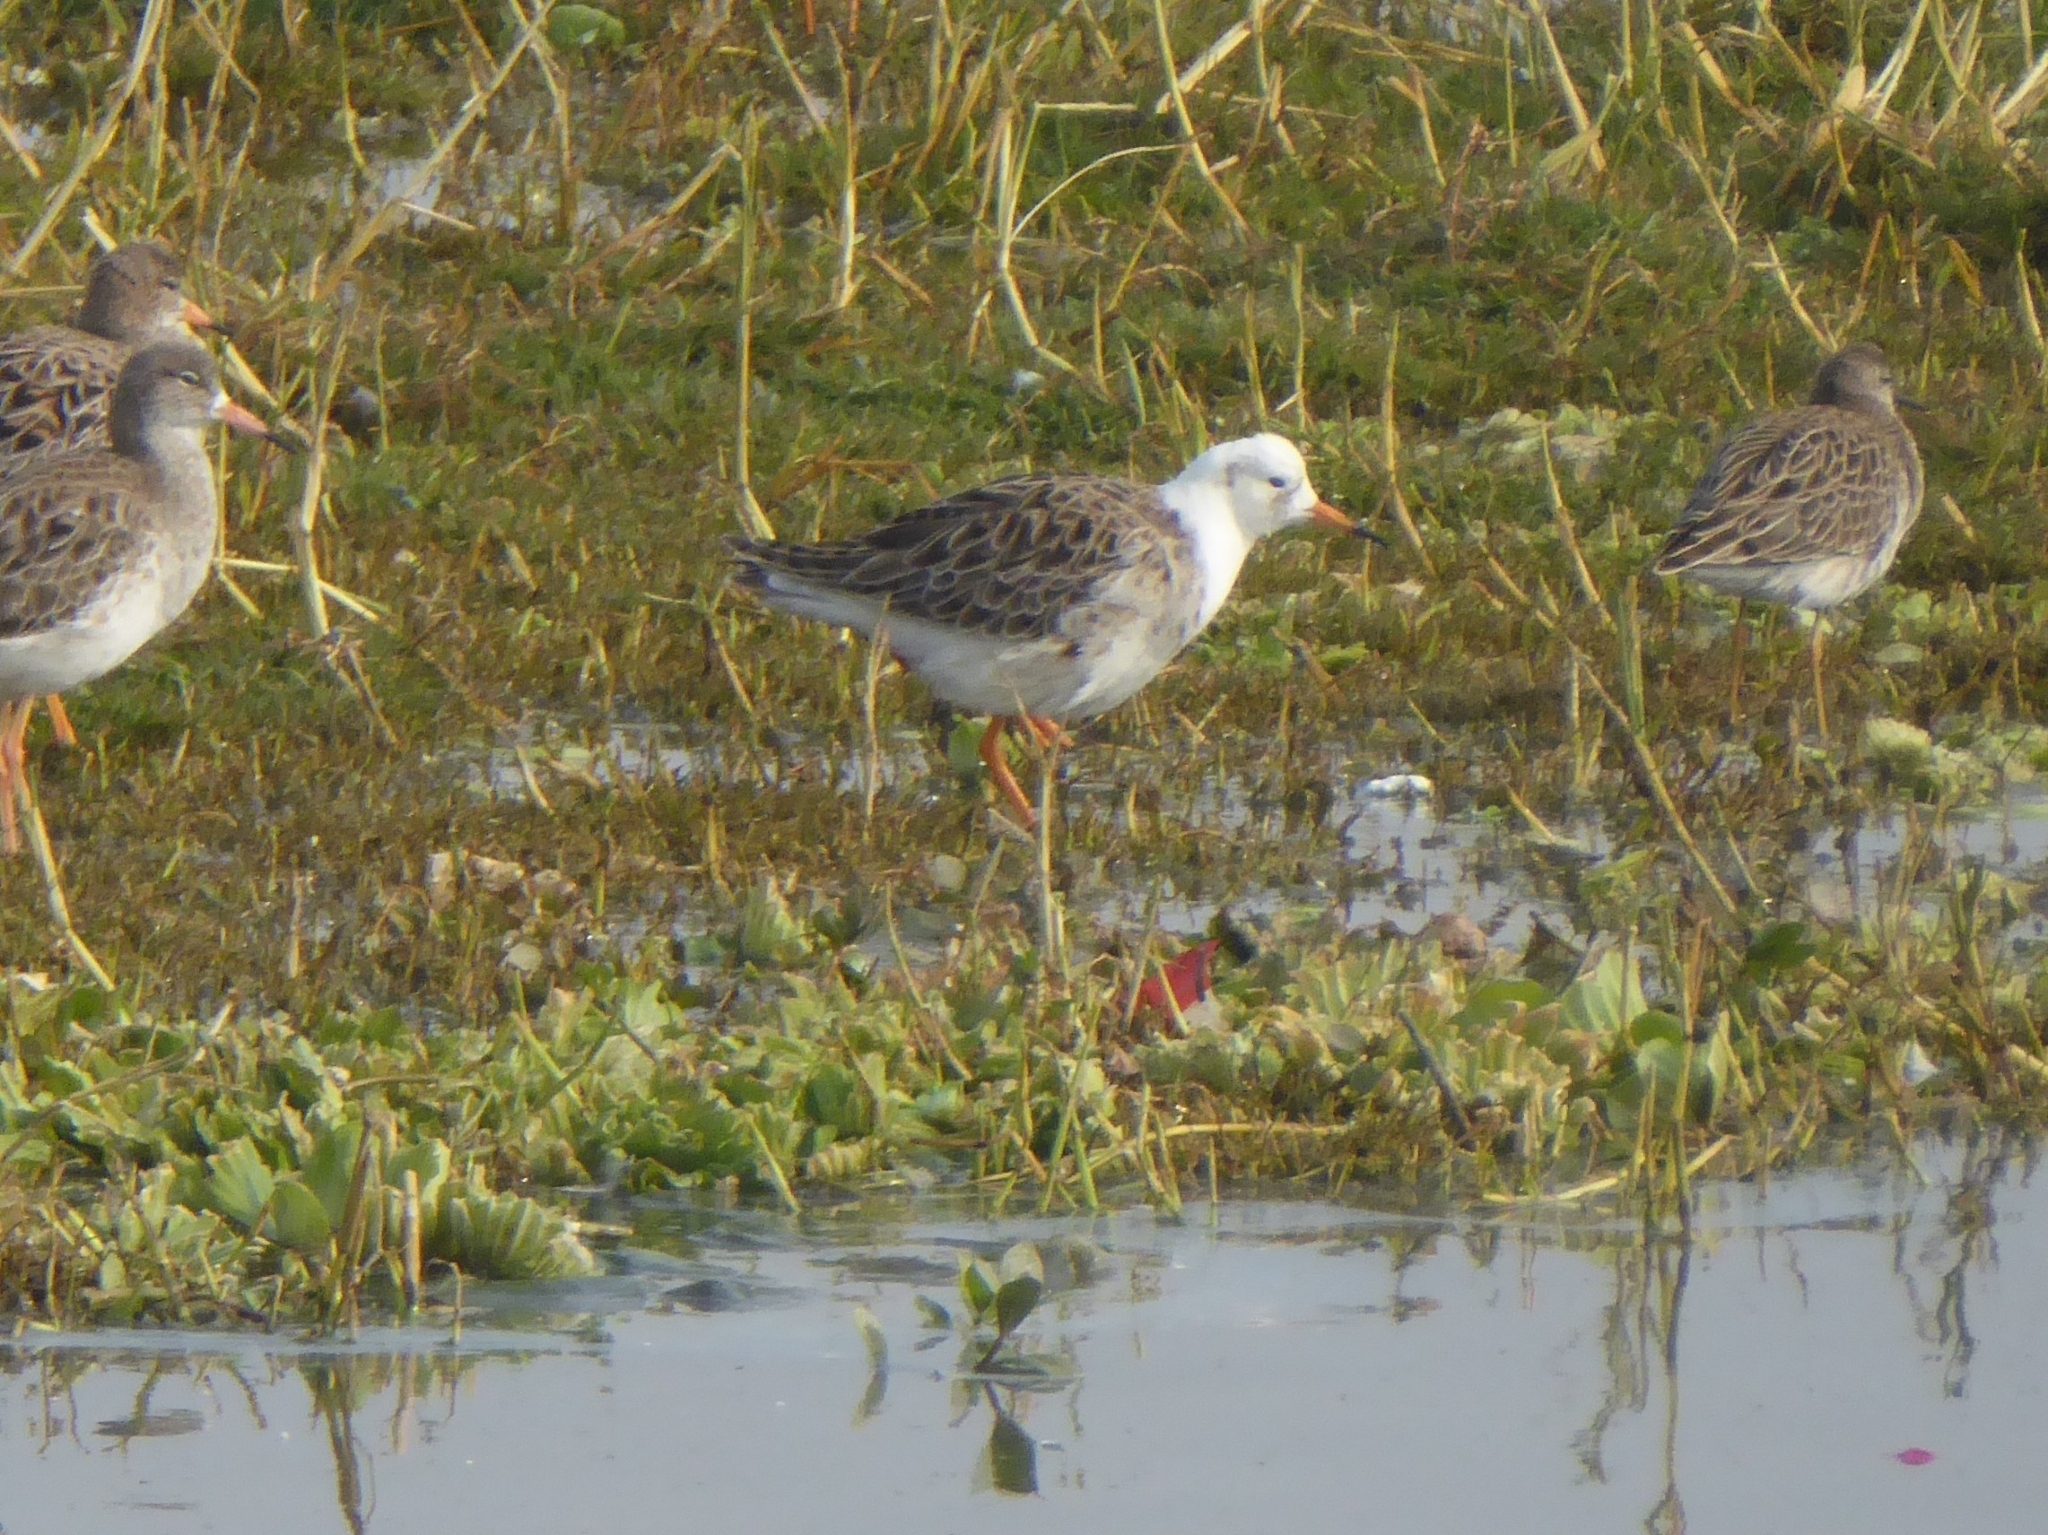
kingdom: Animalia
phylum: Chordata
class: Aves
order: Charadriiformes
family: Scolopacidae
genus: Calidris
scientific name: Calidris pugnax
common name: Ruff
